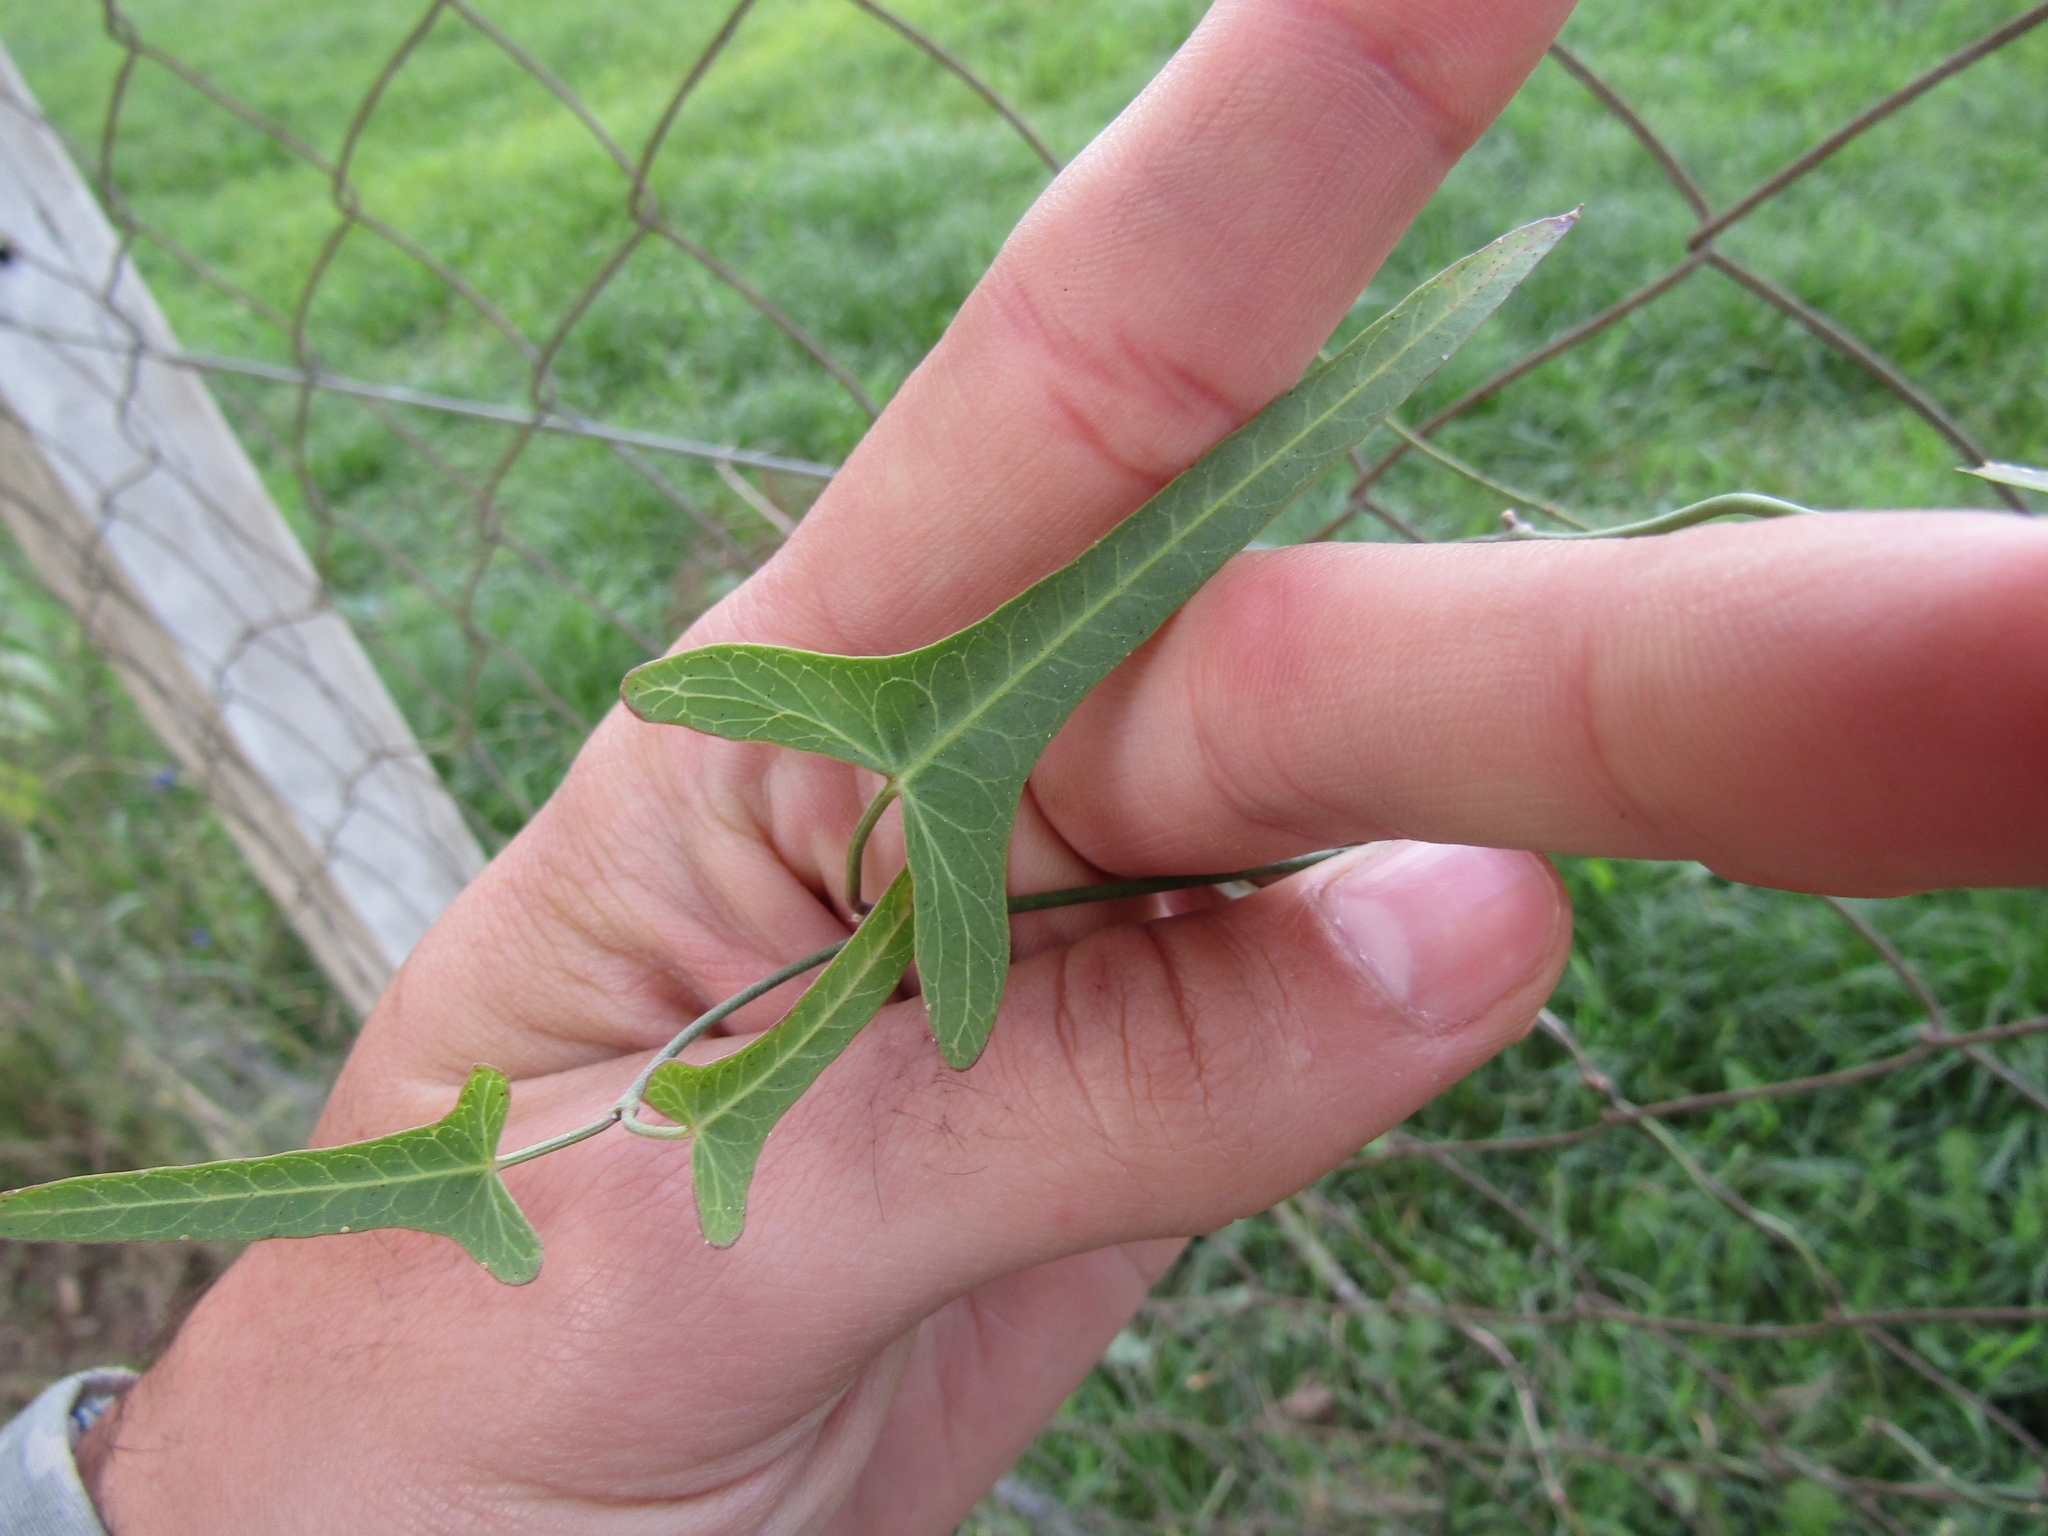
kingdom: Plantae
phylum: Tracheophyta
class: Magnoliopsida
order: Gentianales
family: Apocynaceae
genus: Araujia
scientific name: Araujia angustifolia
